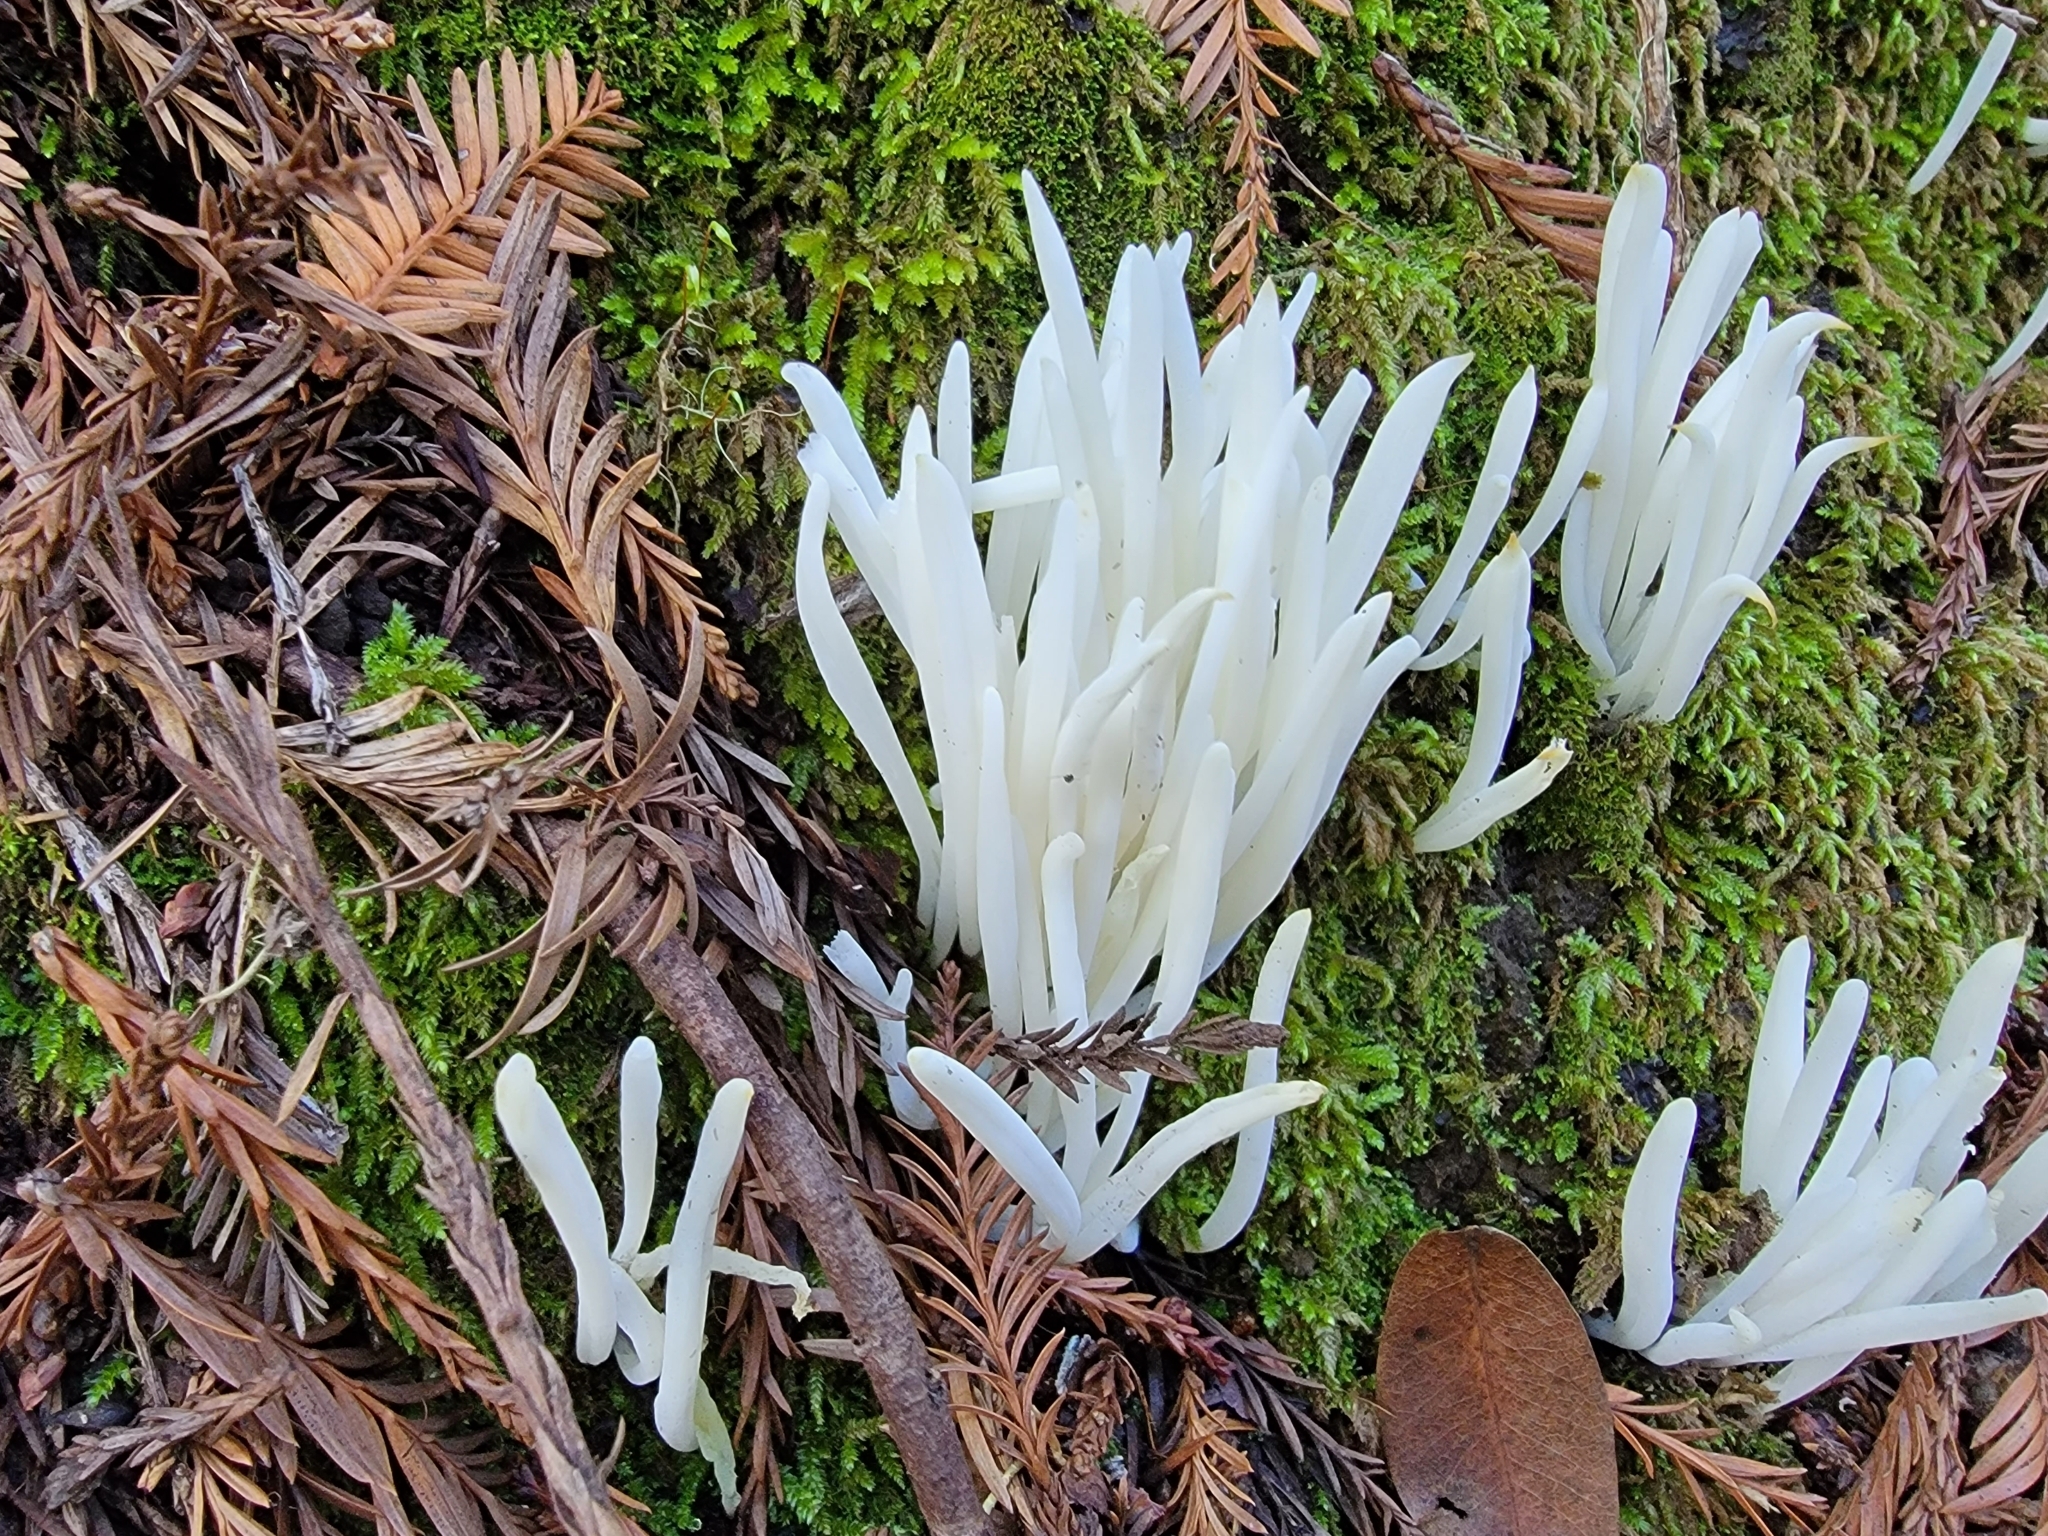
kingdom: Fungi
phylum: Basidiomycota
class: Agaricomycetes
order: Agaricales
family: Clavariaceae
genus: Clavaria
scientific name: Clavaria fragilis
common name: White spindles
